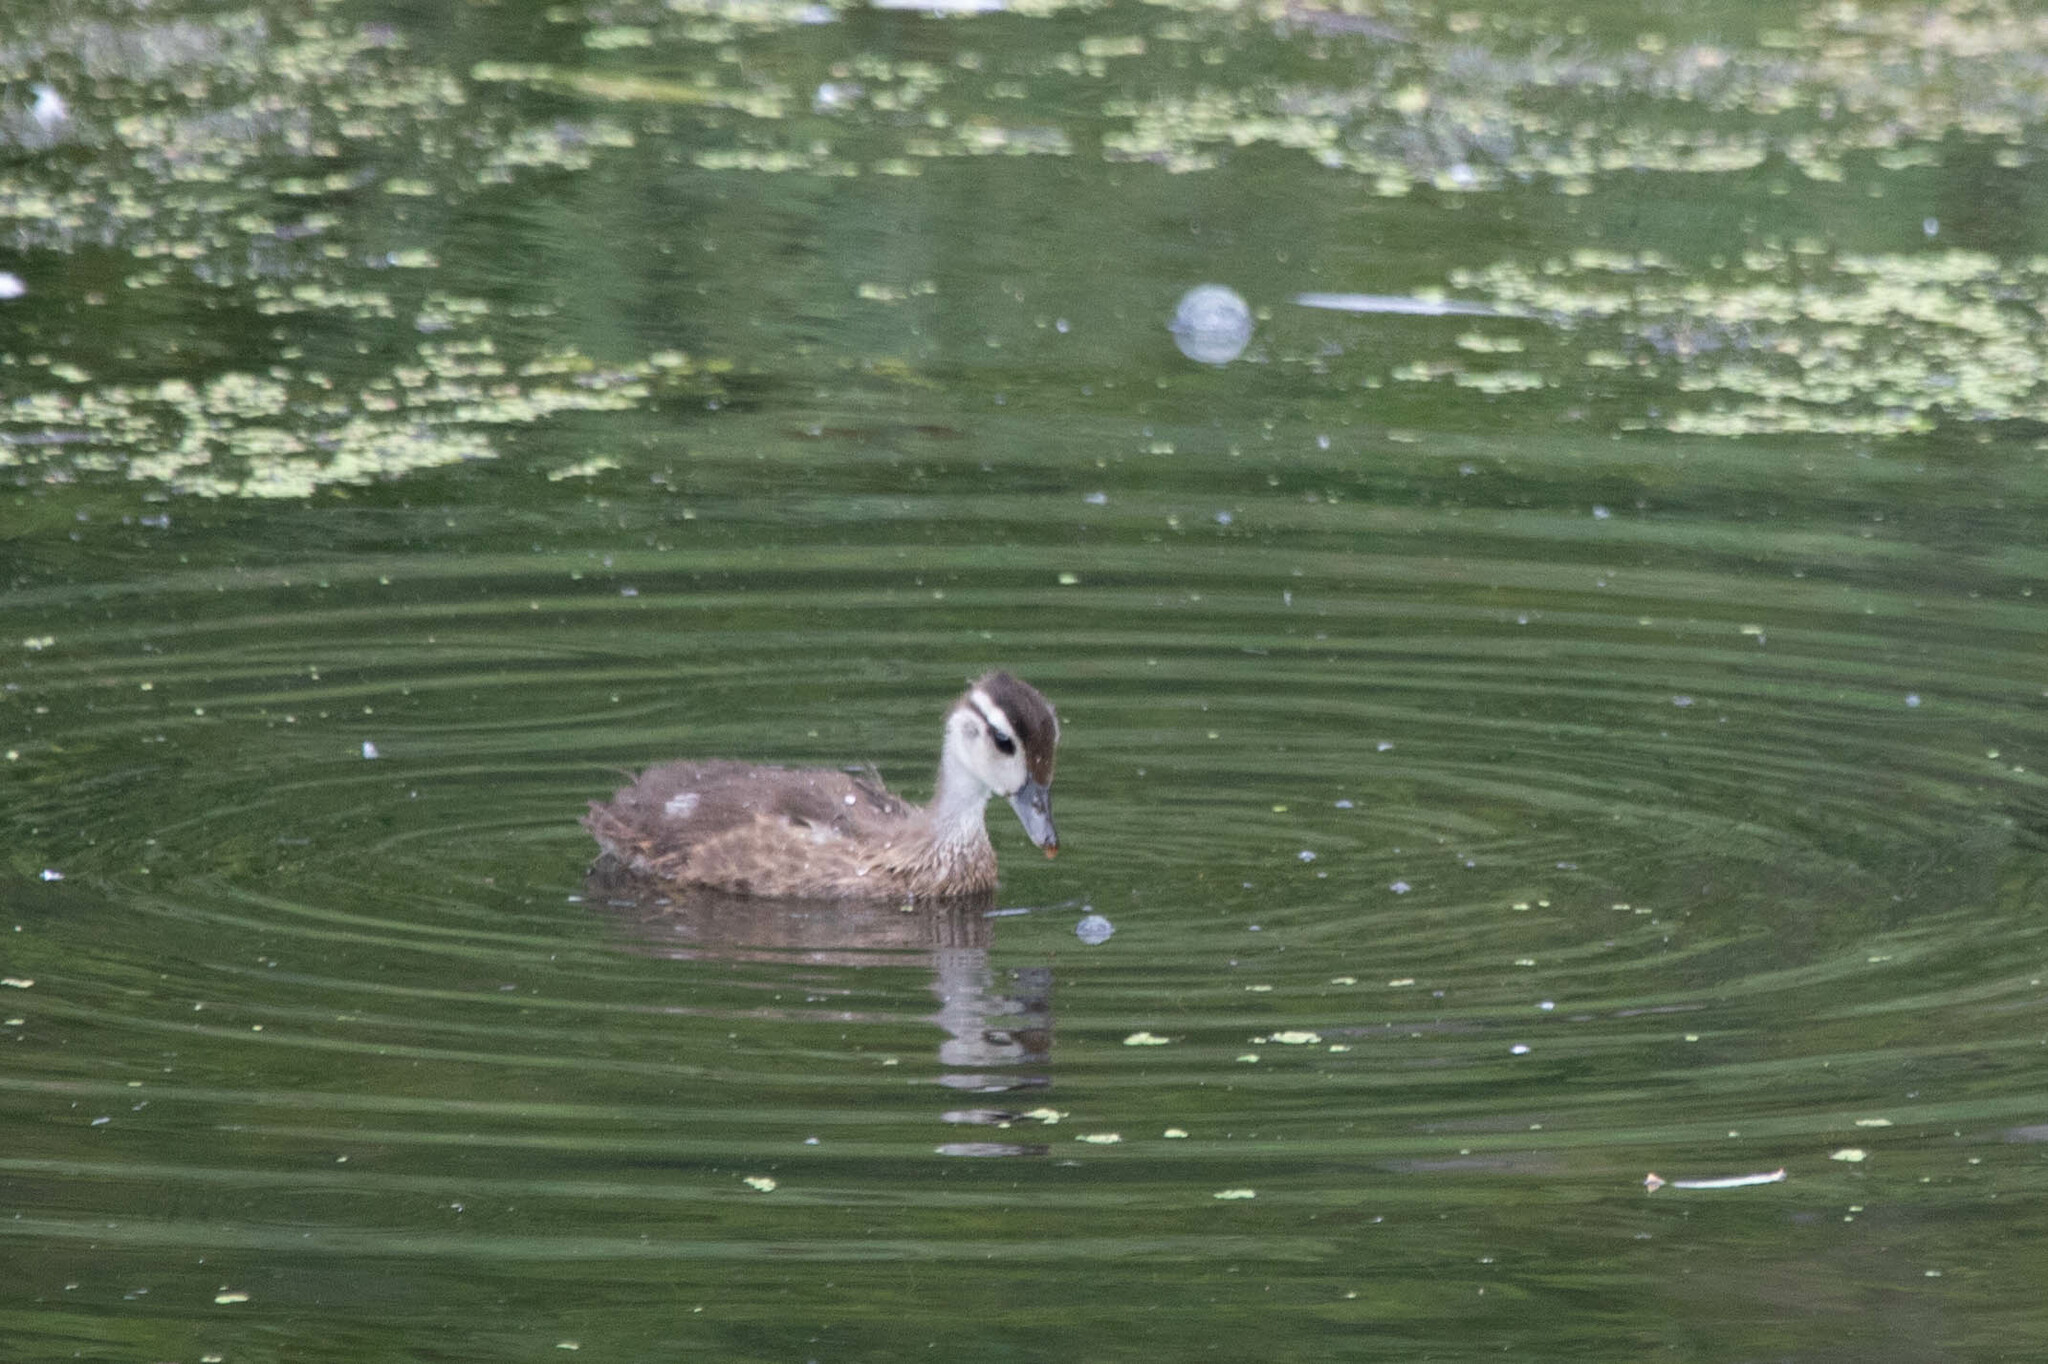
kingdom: Animalia
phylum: Chordata
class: Aves
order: Anseriformes
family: Anatidae
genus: Aix
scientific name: Aix sponsa
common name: Wood duck
